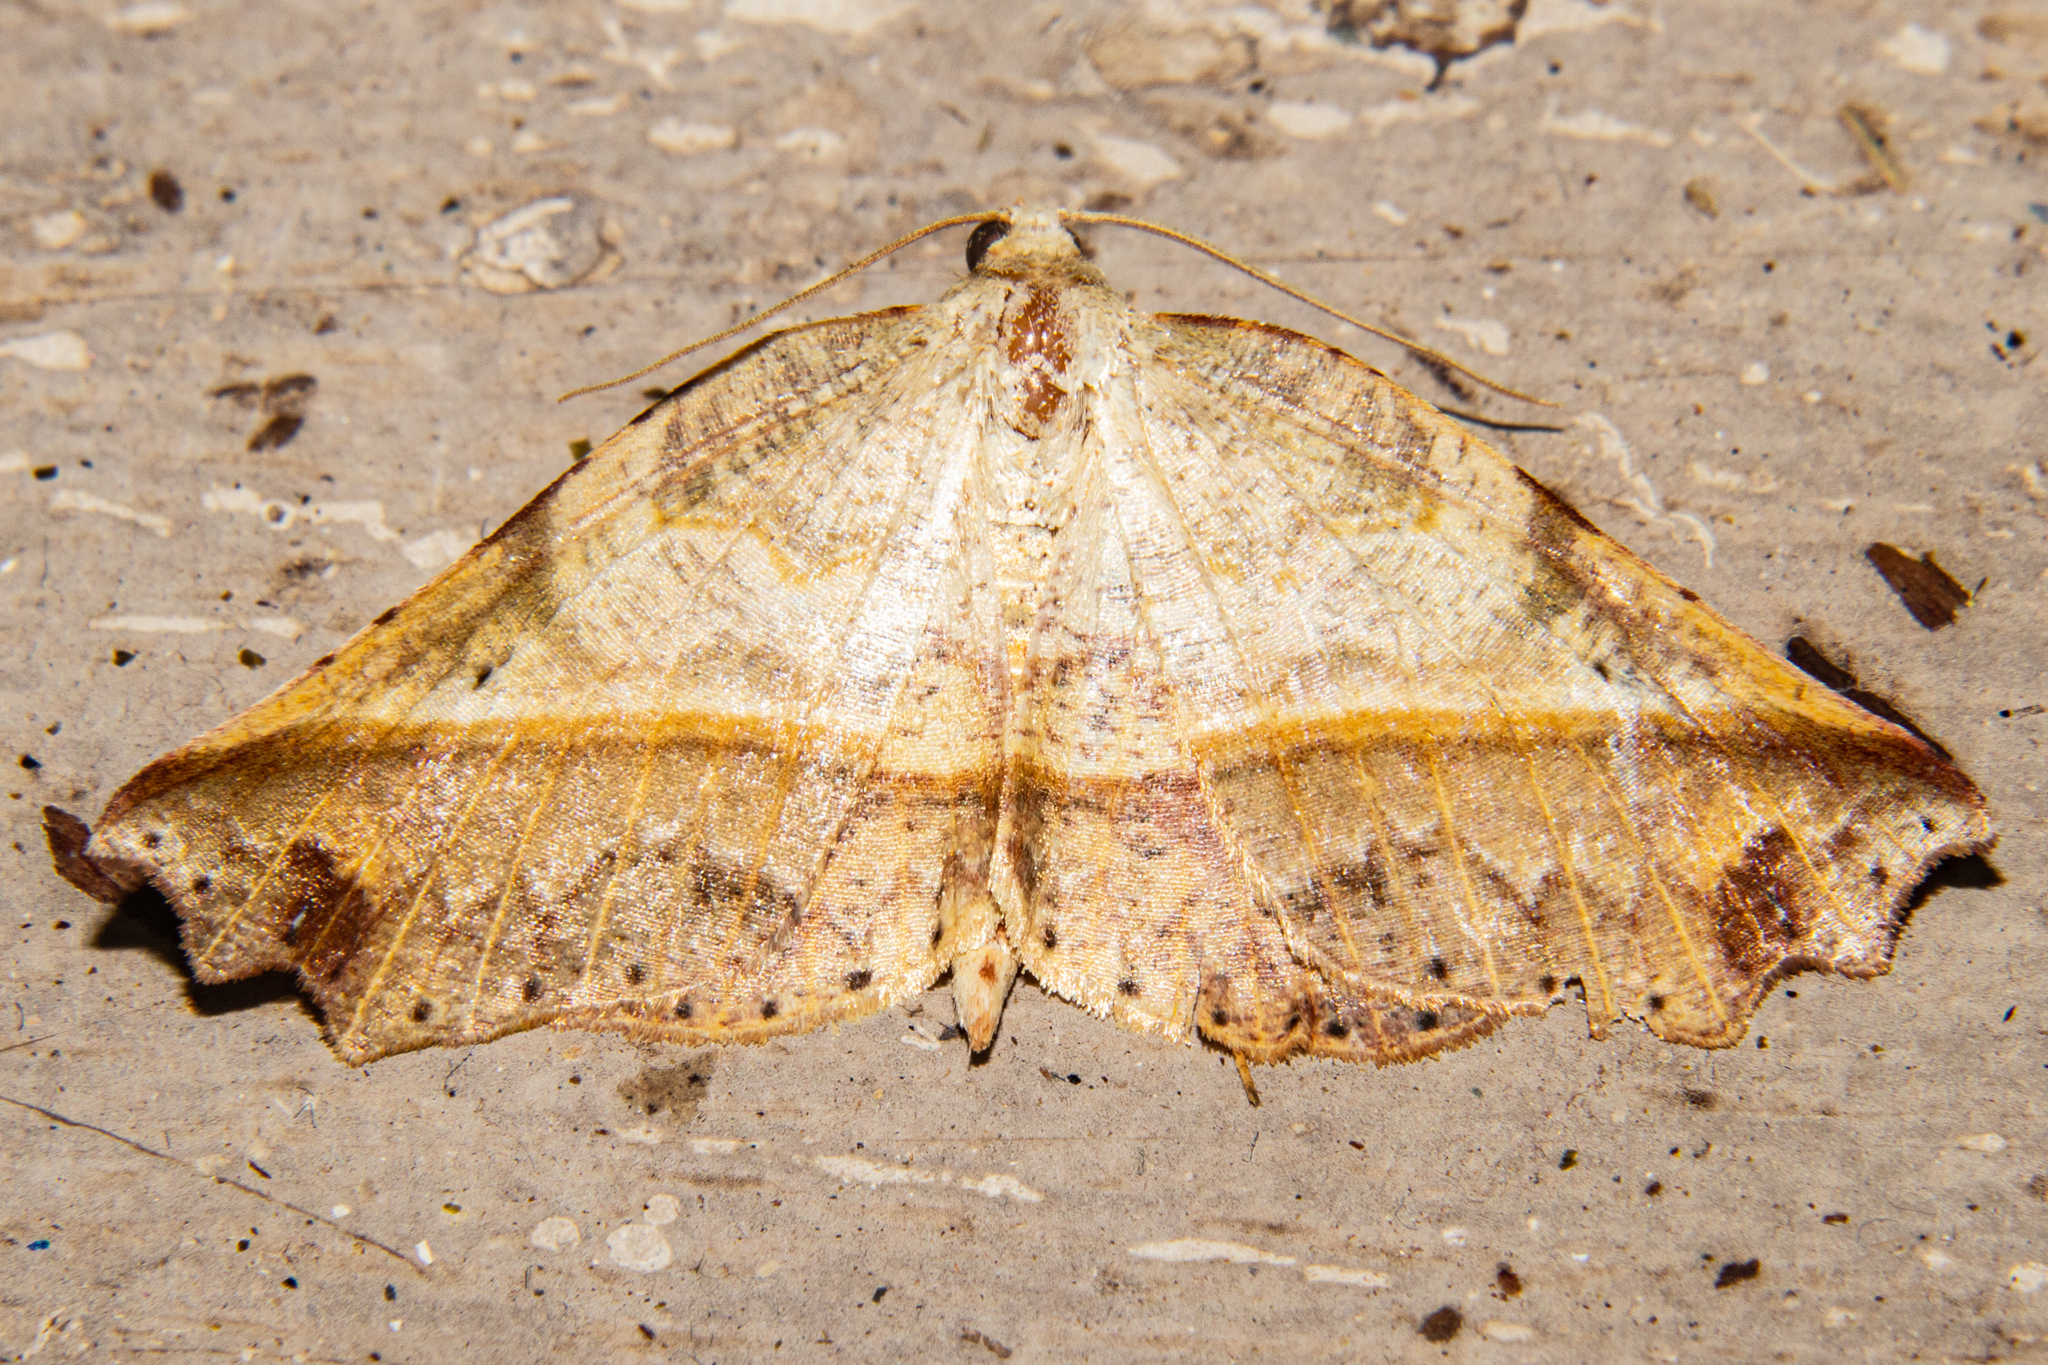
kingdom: Animalia
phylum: Arthropoda
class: Insecta
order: Lepidoptera
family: Geometridae
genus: Ischalis
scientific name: Ischalis gallaria
